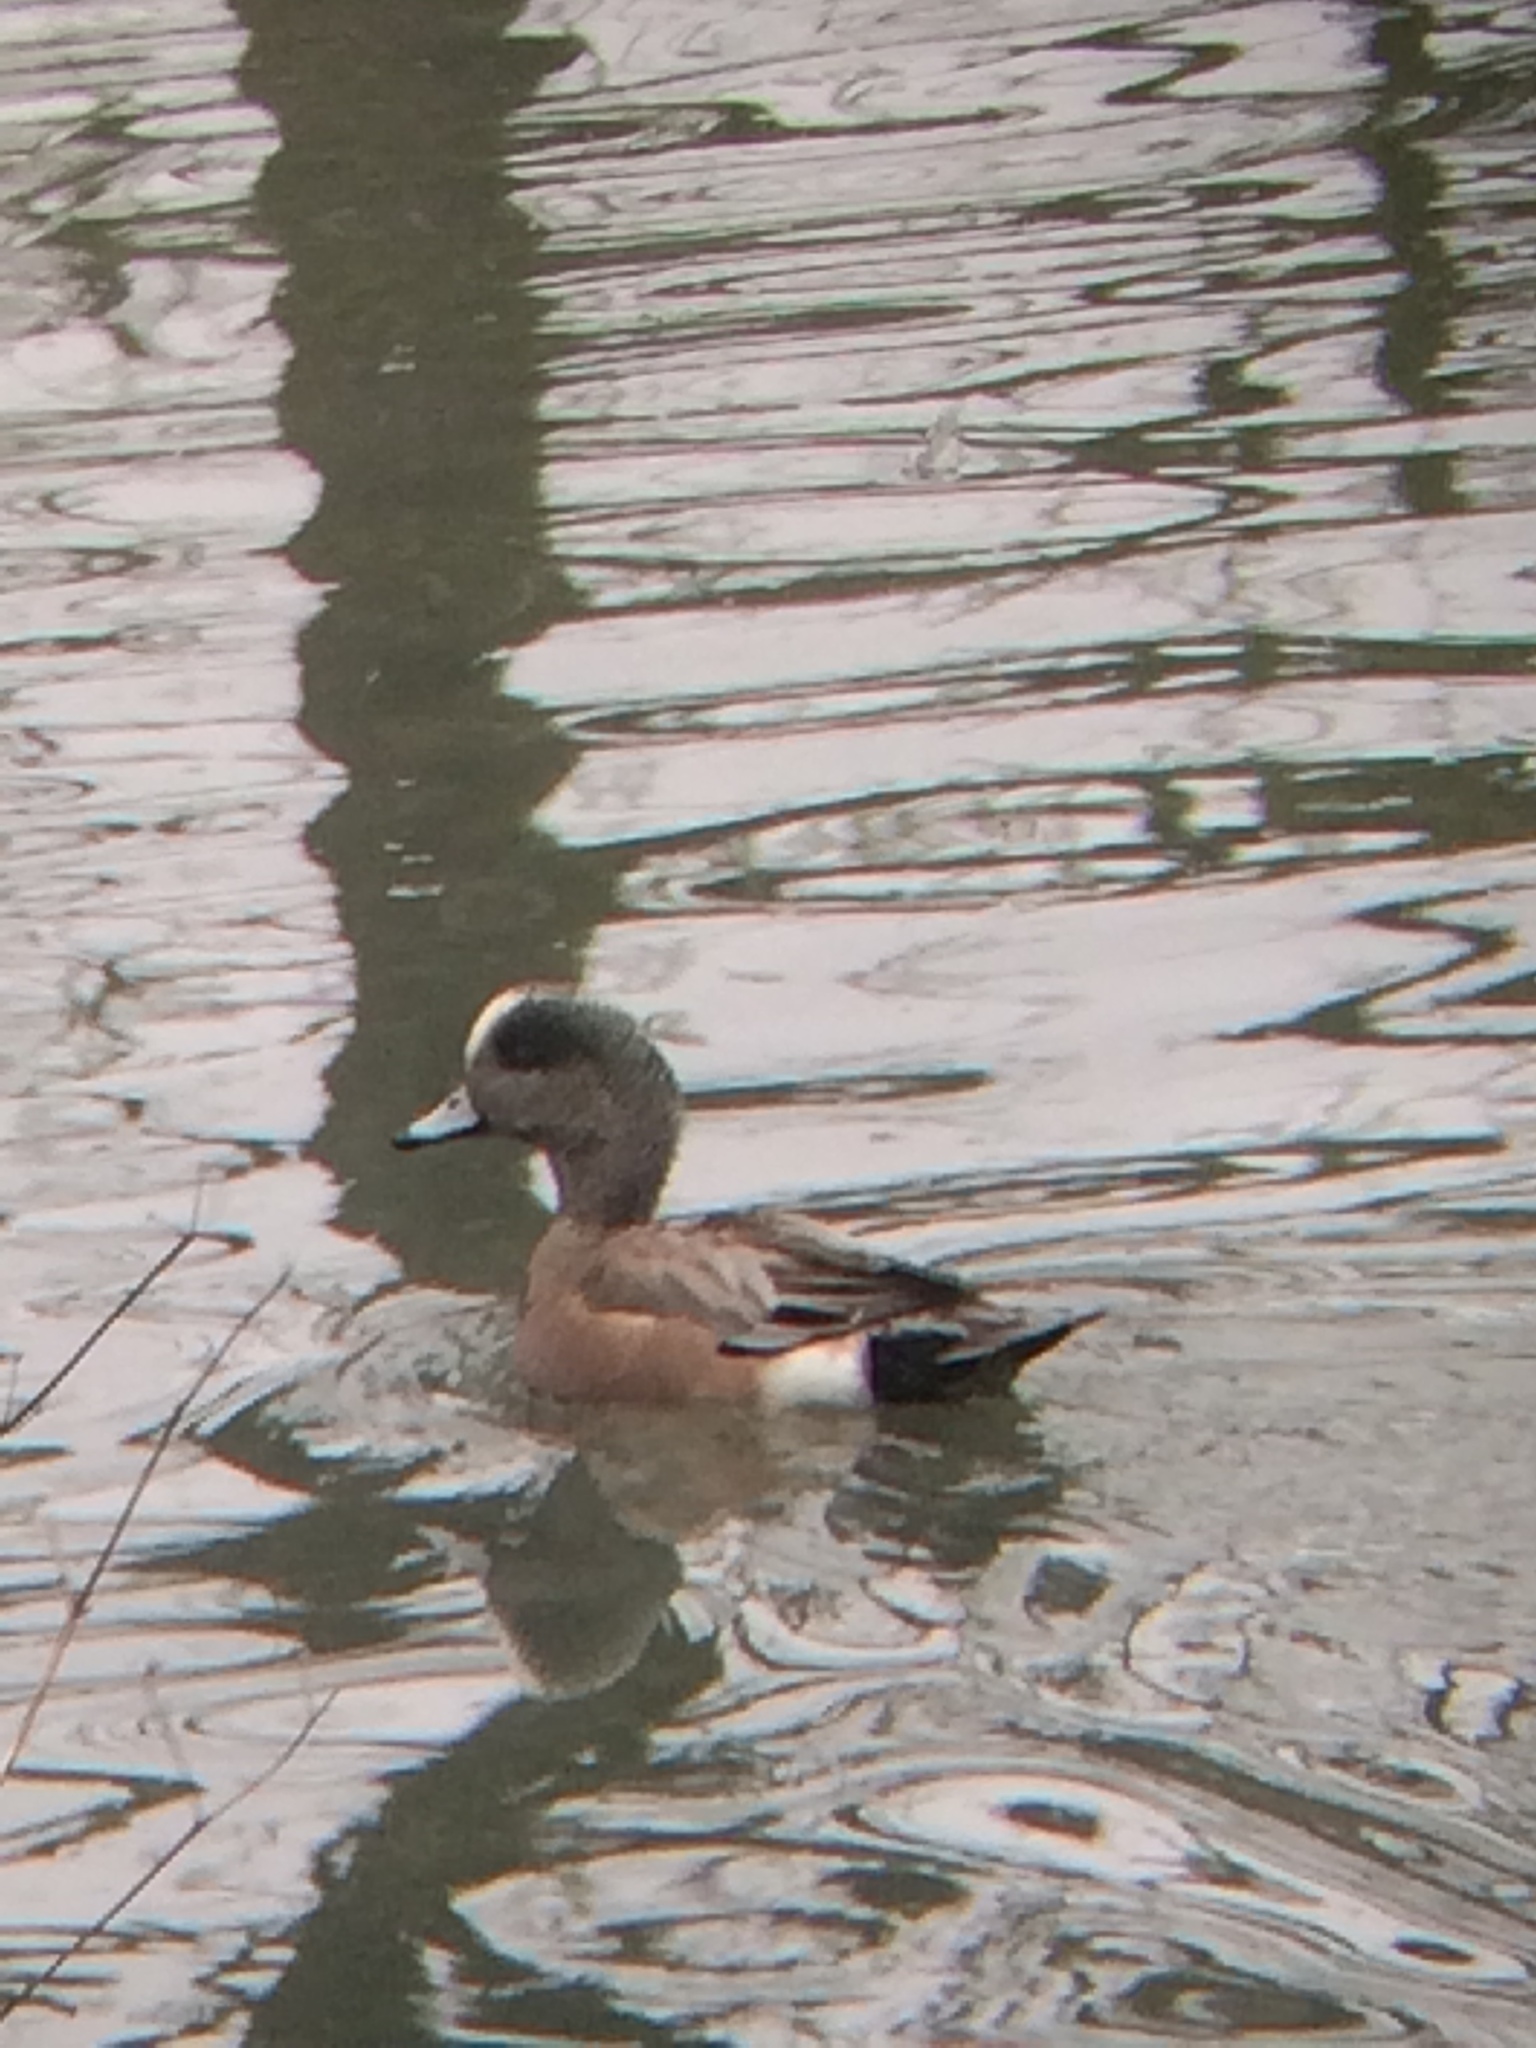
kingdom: Animalia
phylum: Chordata
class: Aves
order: Anseriformes
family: Anatidae
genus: Mareca
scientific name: Mareca americana
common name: American wigeon
